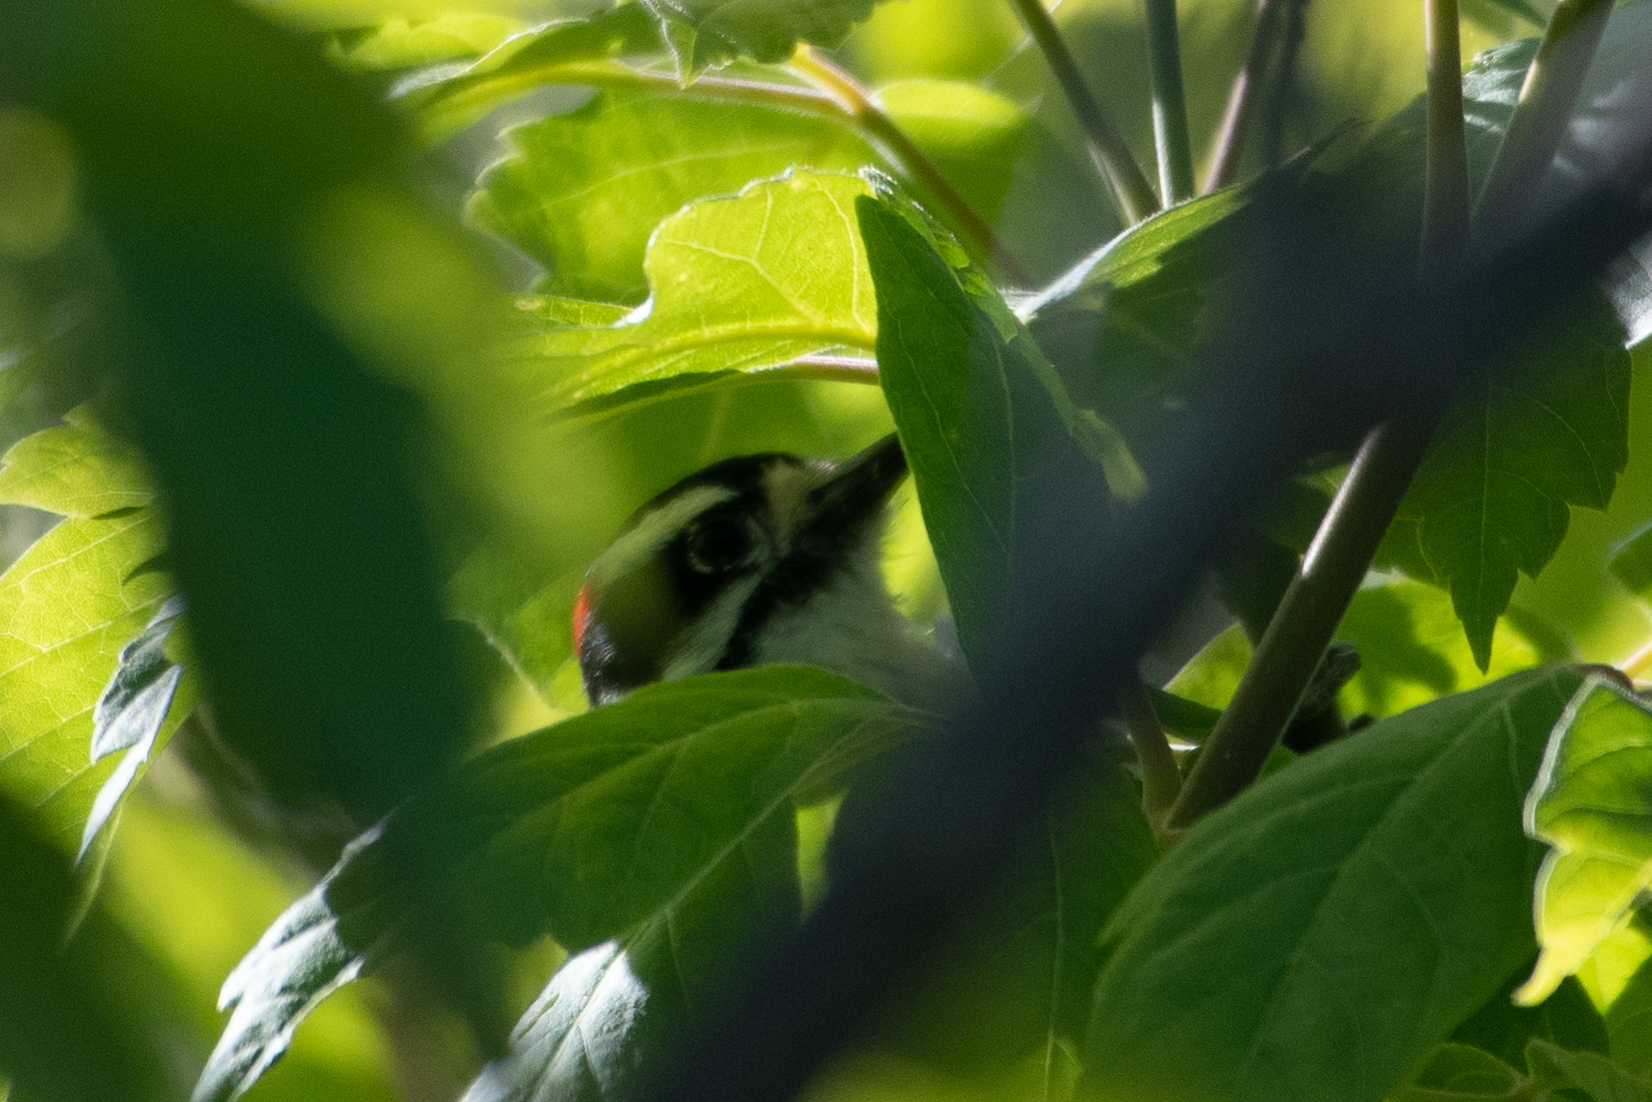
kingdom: Animalia
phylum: Chordata
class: Aves
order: Piciformes
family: Picidae
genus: Dryobates
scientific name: Dryobates
